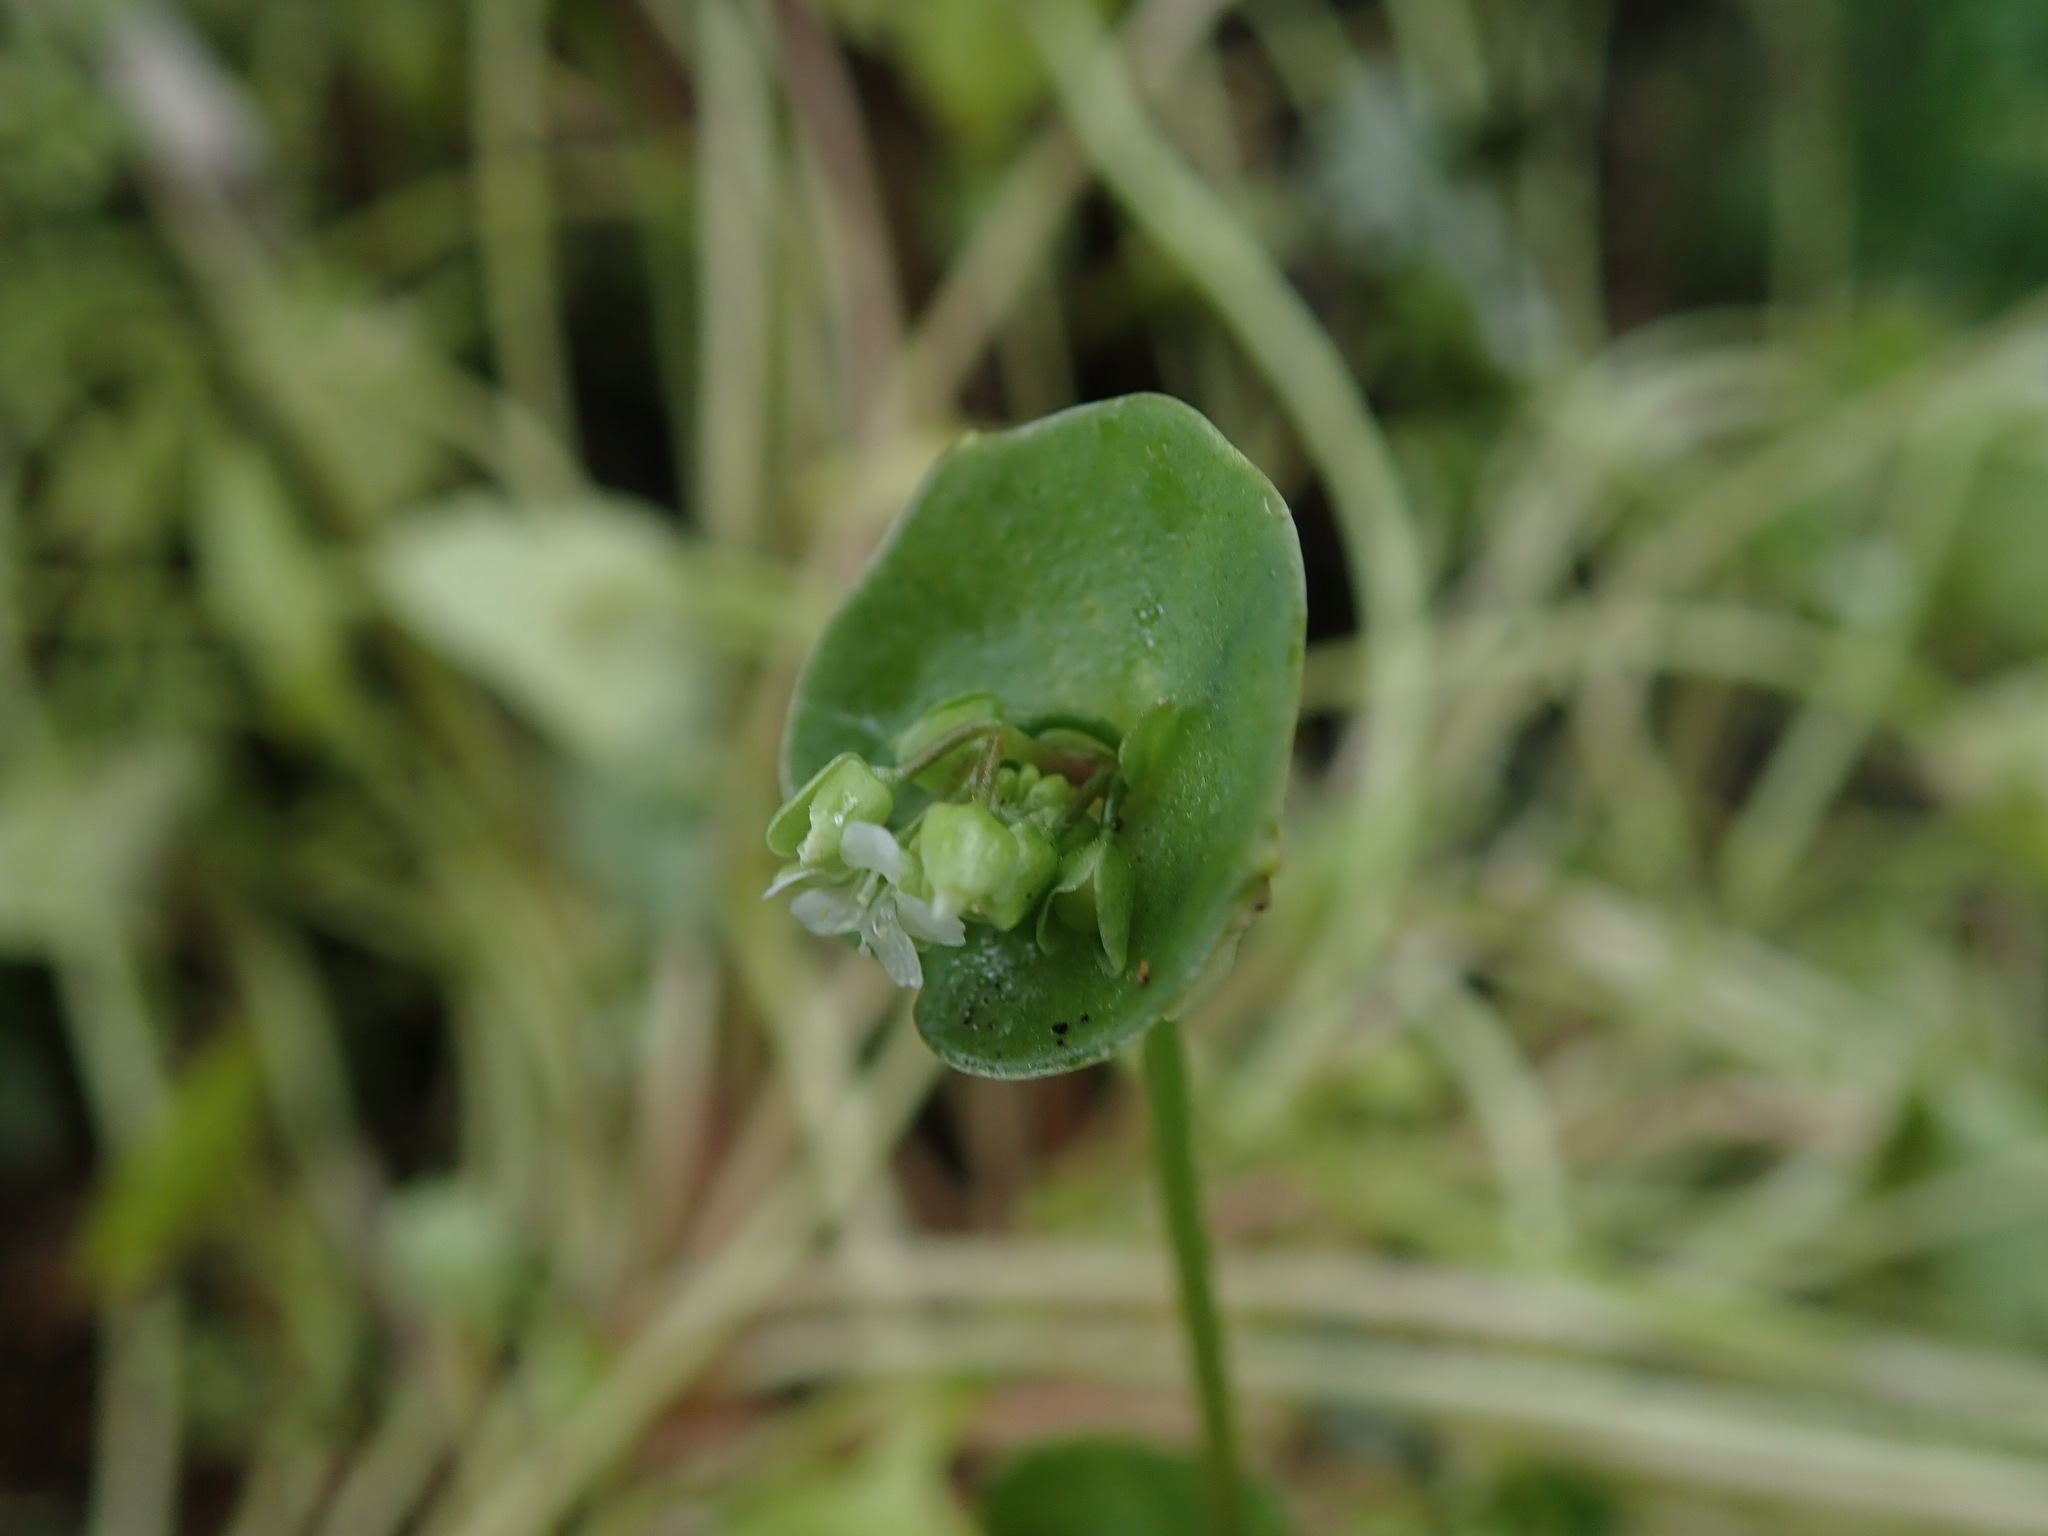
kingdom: Plantae
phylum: Tracheophyta
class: Magnoliopsida
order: Caryophyllales
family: Montiaceae
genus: Claytonia
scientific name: Claytonia perfoliata
